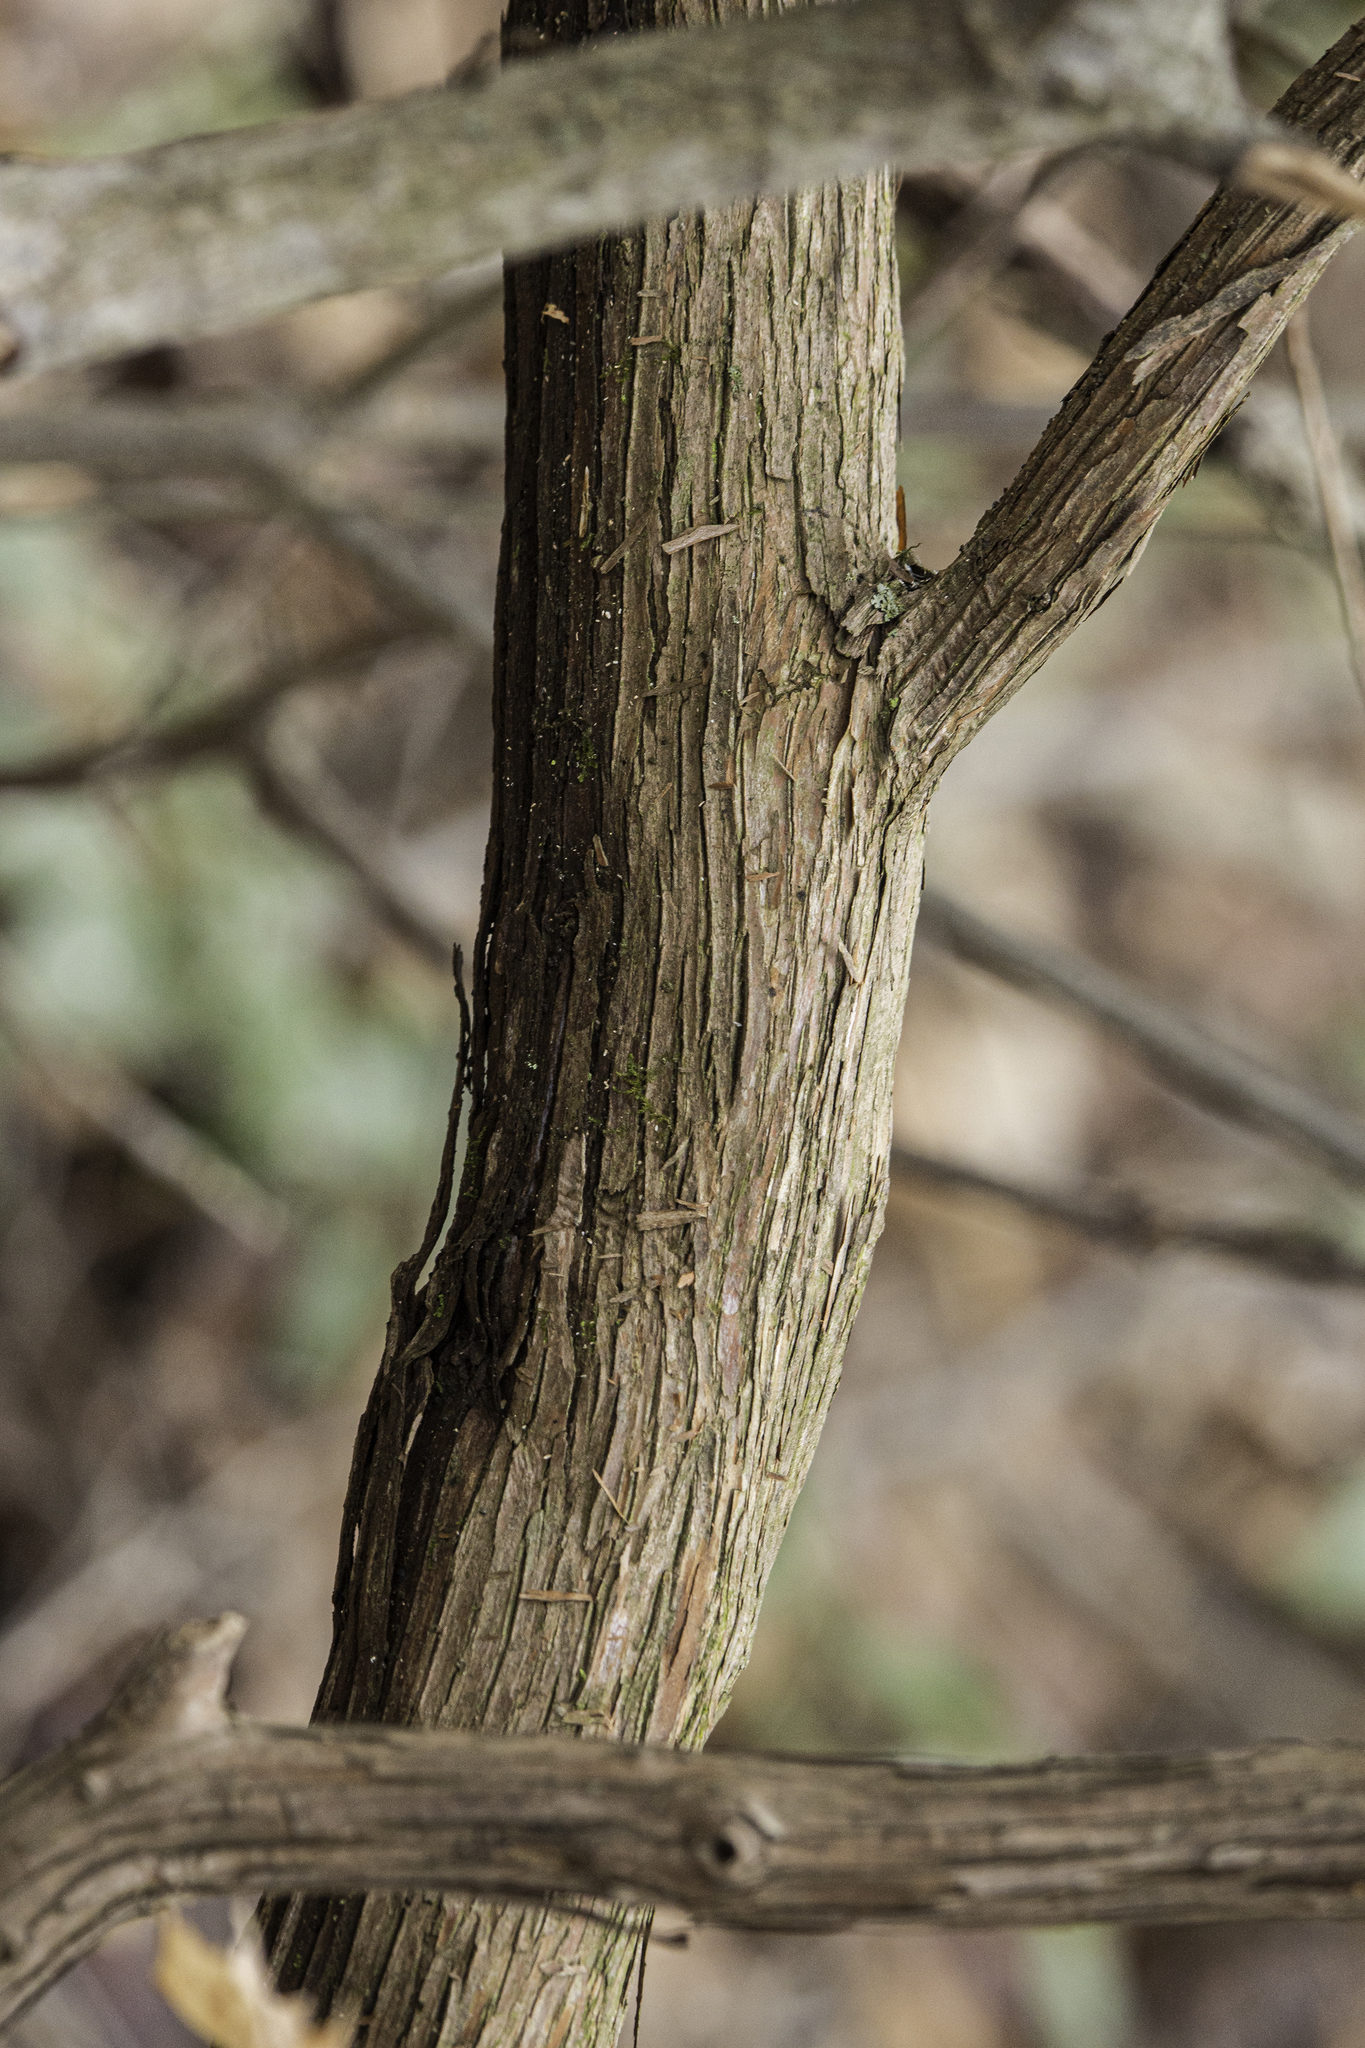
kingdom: Plantae
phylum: Tracheophyta
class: Magnoliopsida
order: Ericales
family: Ericaceae
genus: Kalmia
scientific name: Kalmia latifolia
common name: Mountain-laurel
